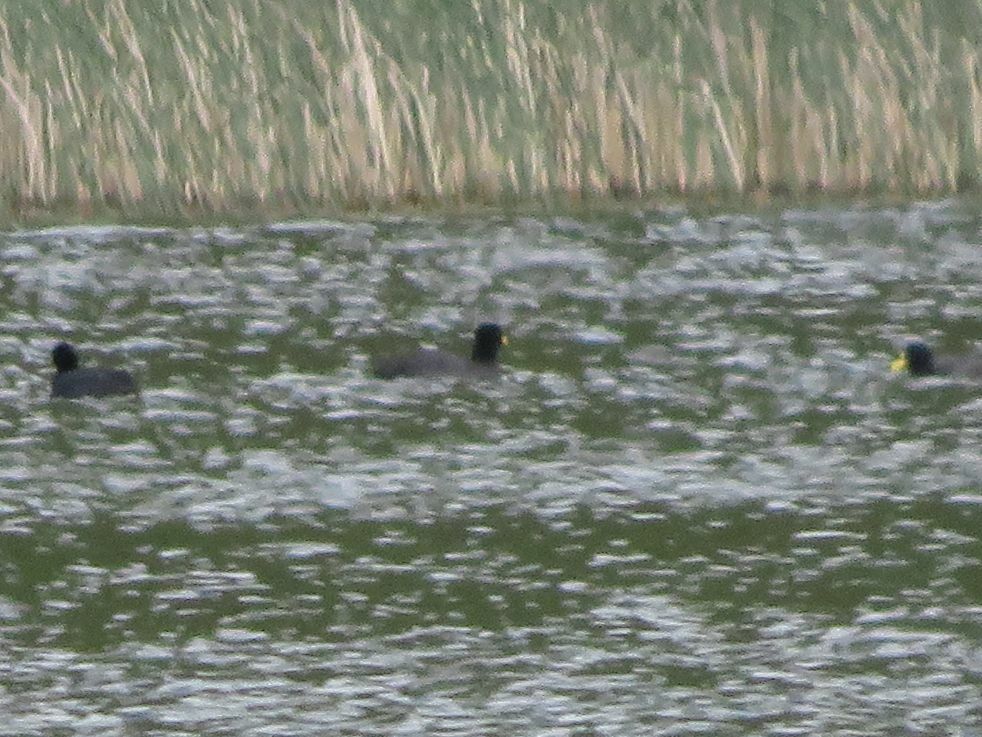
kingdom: Animalia
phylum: Chordata
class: Aves
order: Gruiformes
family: Rallidae
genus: Fulica
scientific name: Fulica armillata
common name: Red-gartered coot
